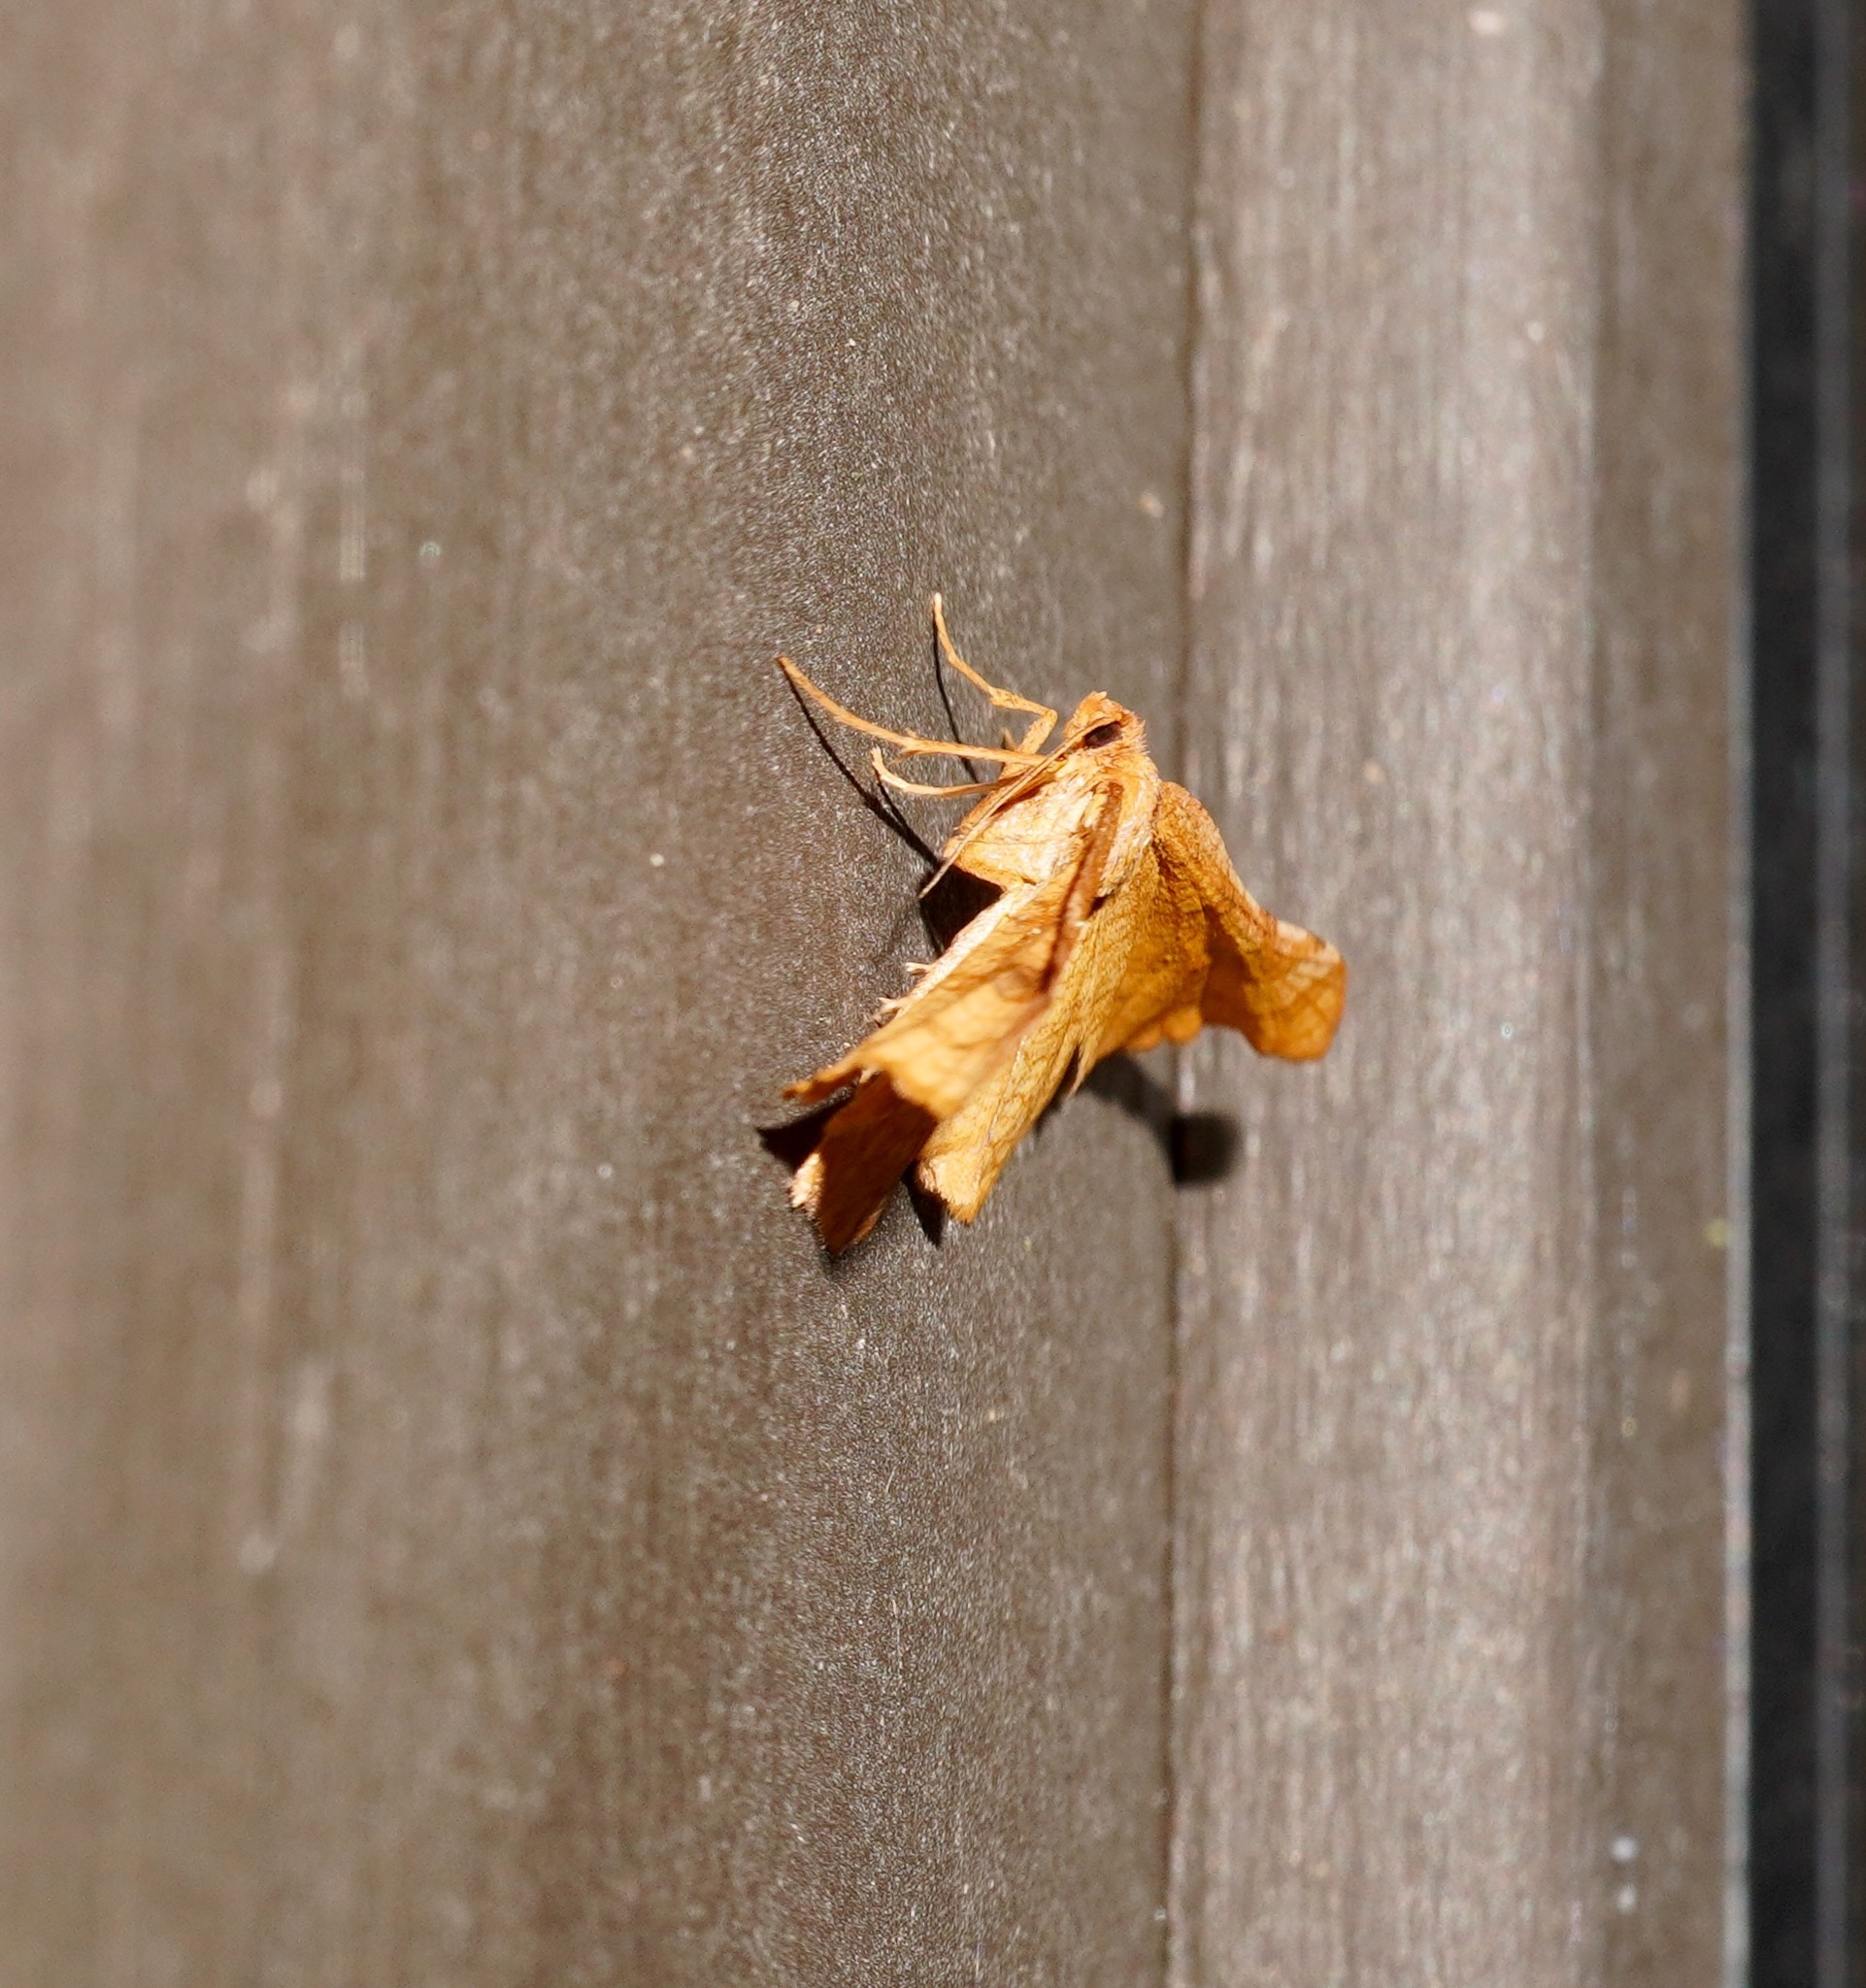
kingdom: Animalia
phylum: Arthropoda
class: Insecta
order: Lepidoptera
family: Thyrididae
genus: Morova
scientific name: Morova subfasciata
